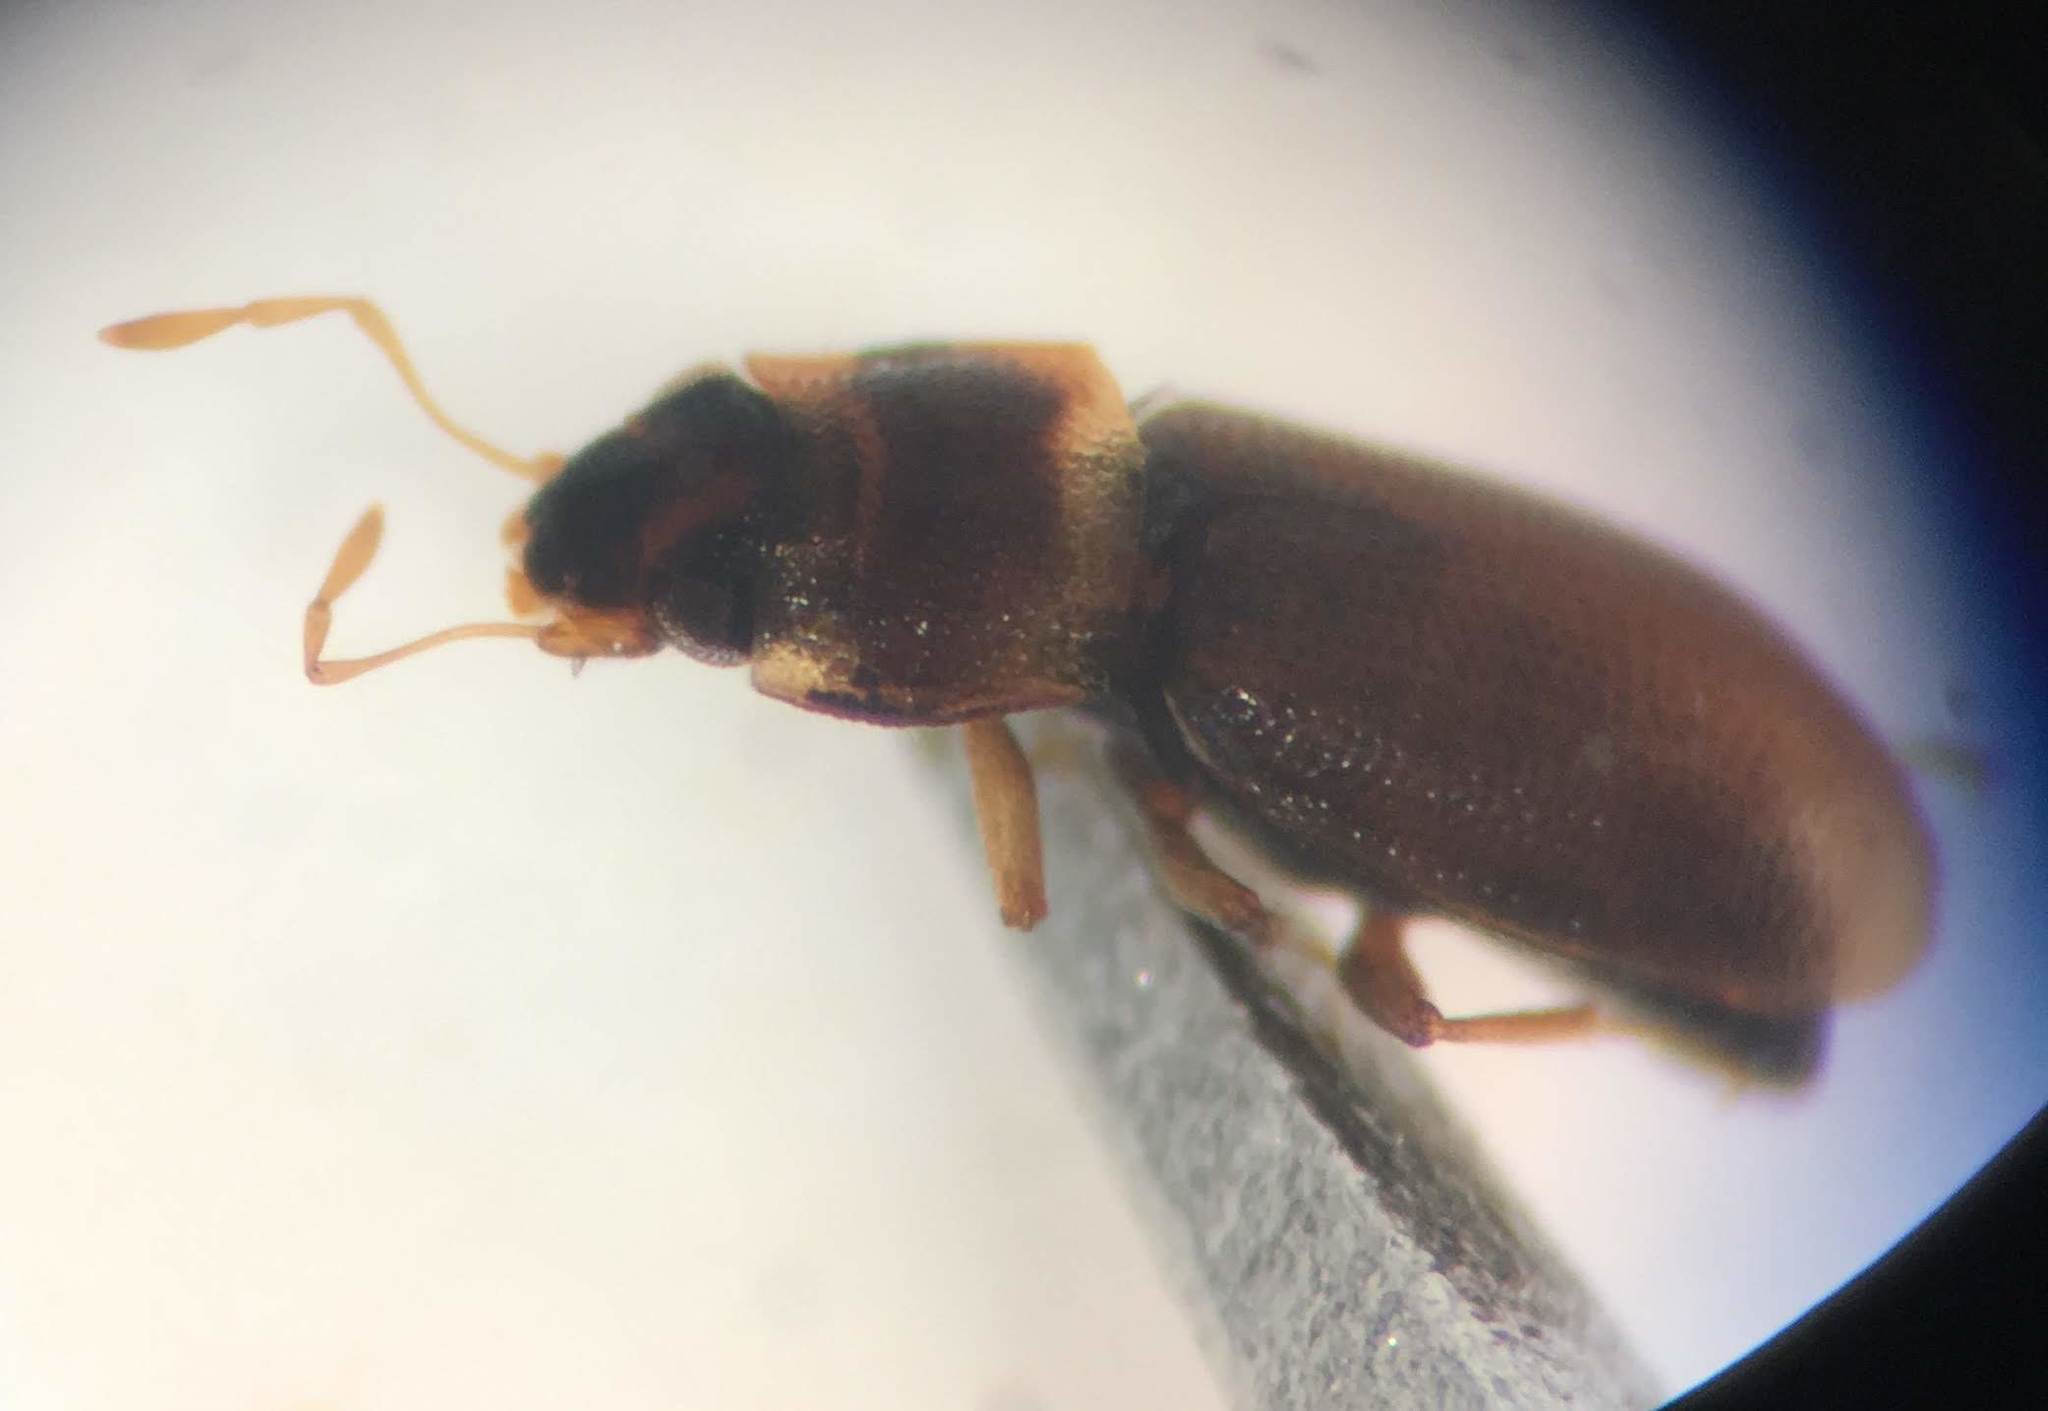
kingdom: Animalia
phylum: Arthropoda
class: Insecta
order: Coleoptera
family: Hydraenidae
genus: Hydraena
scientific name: Hydraena marginicollis
